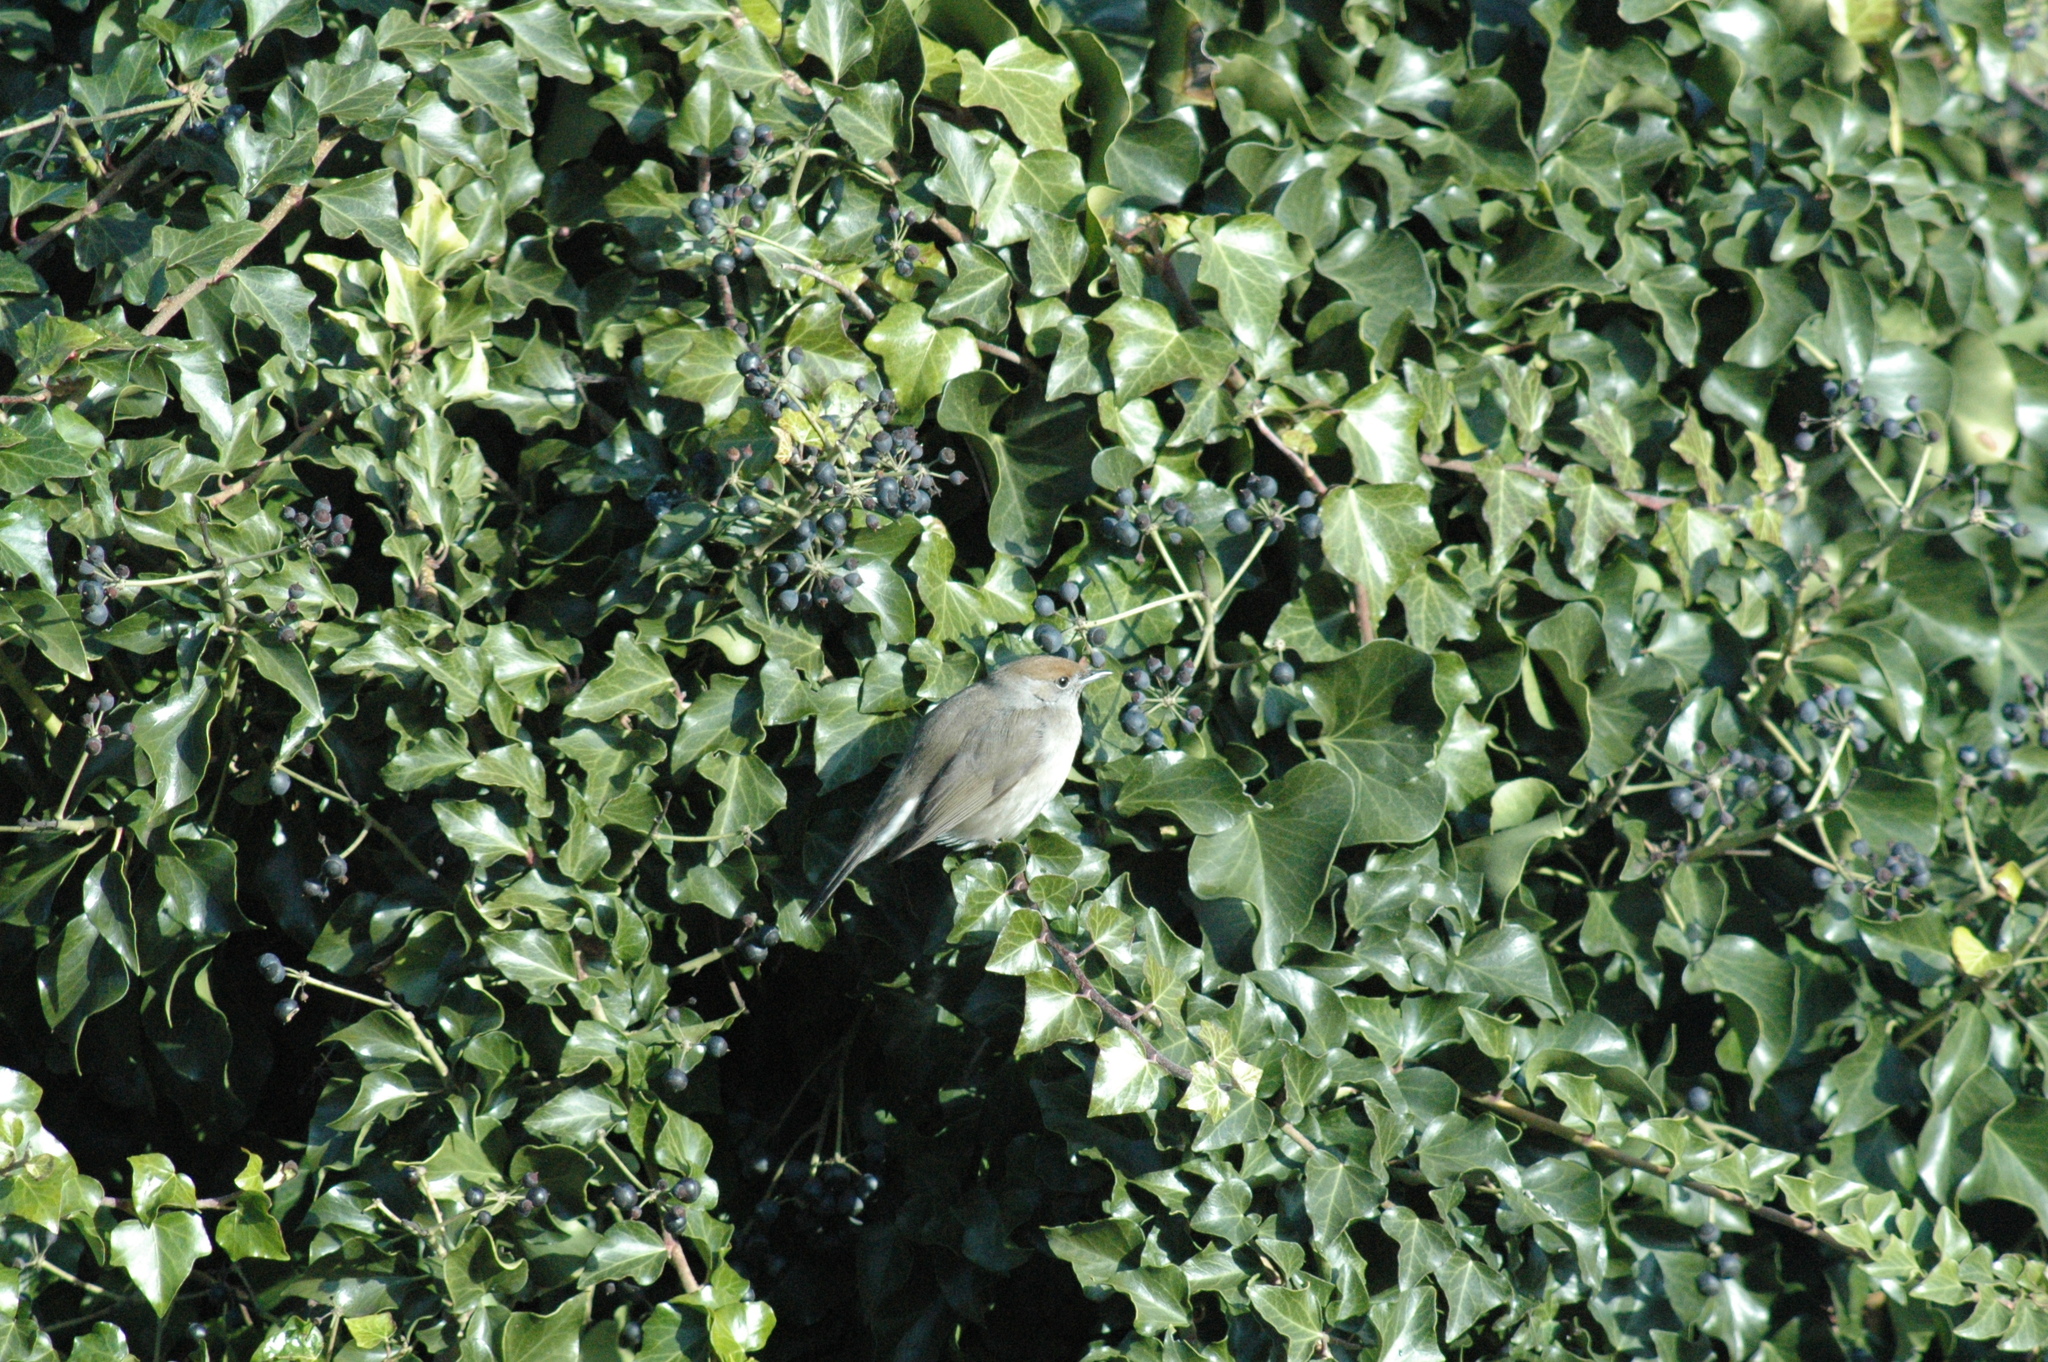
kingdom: Animalia
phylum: Chordata
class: Aves
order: Passeriformes
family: Sylviidae
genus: Sylvia
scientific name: Sylvia atricapilla
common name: Eurasian blackcap
